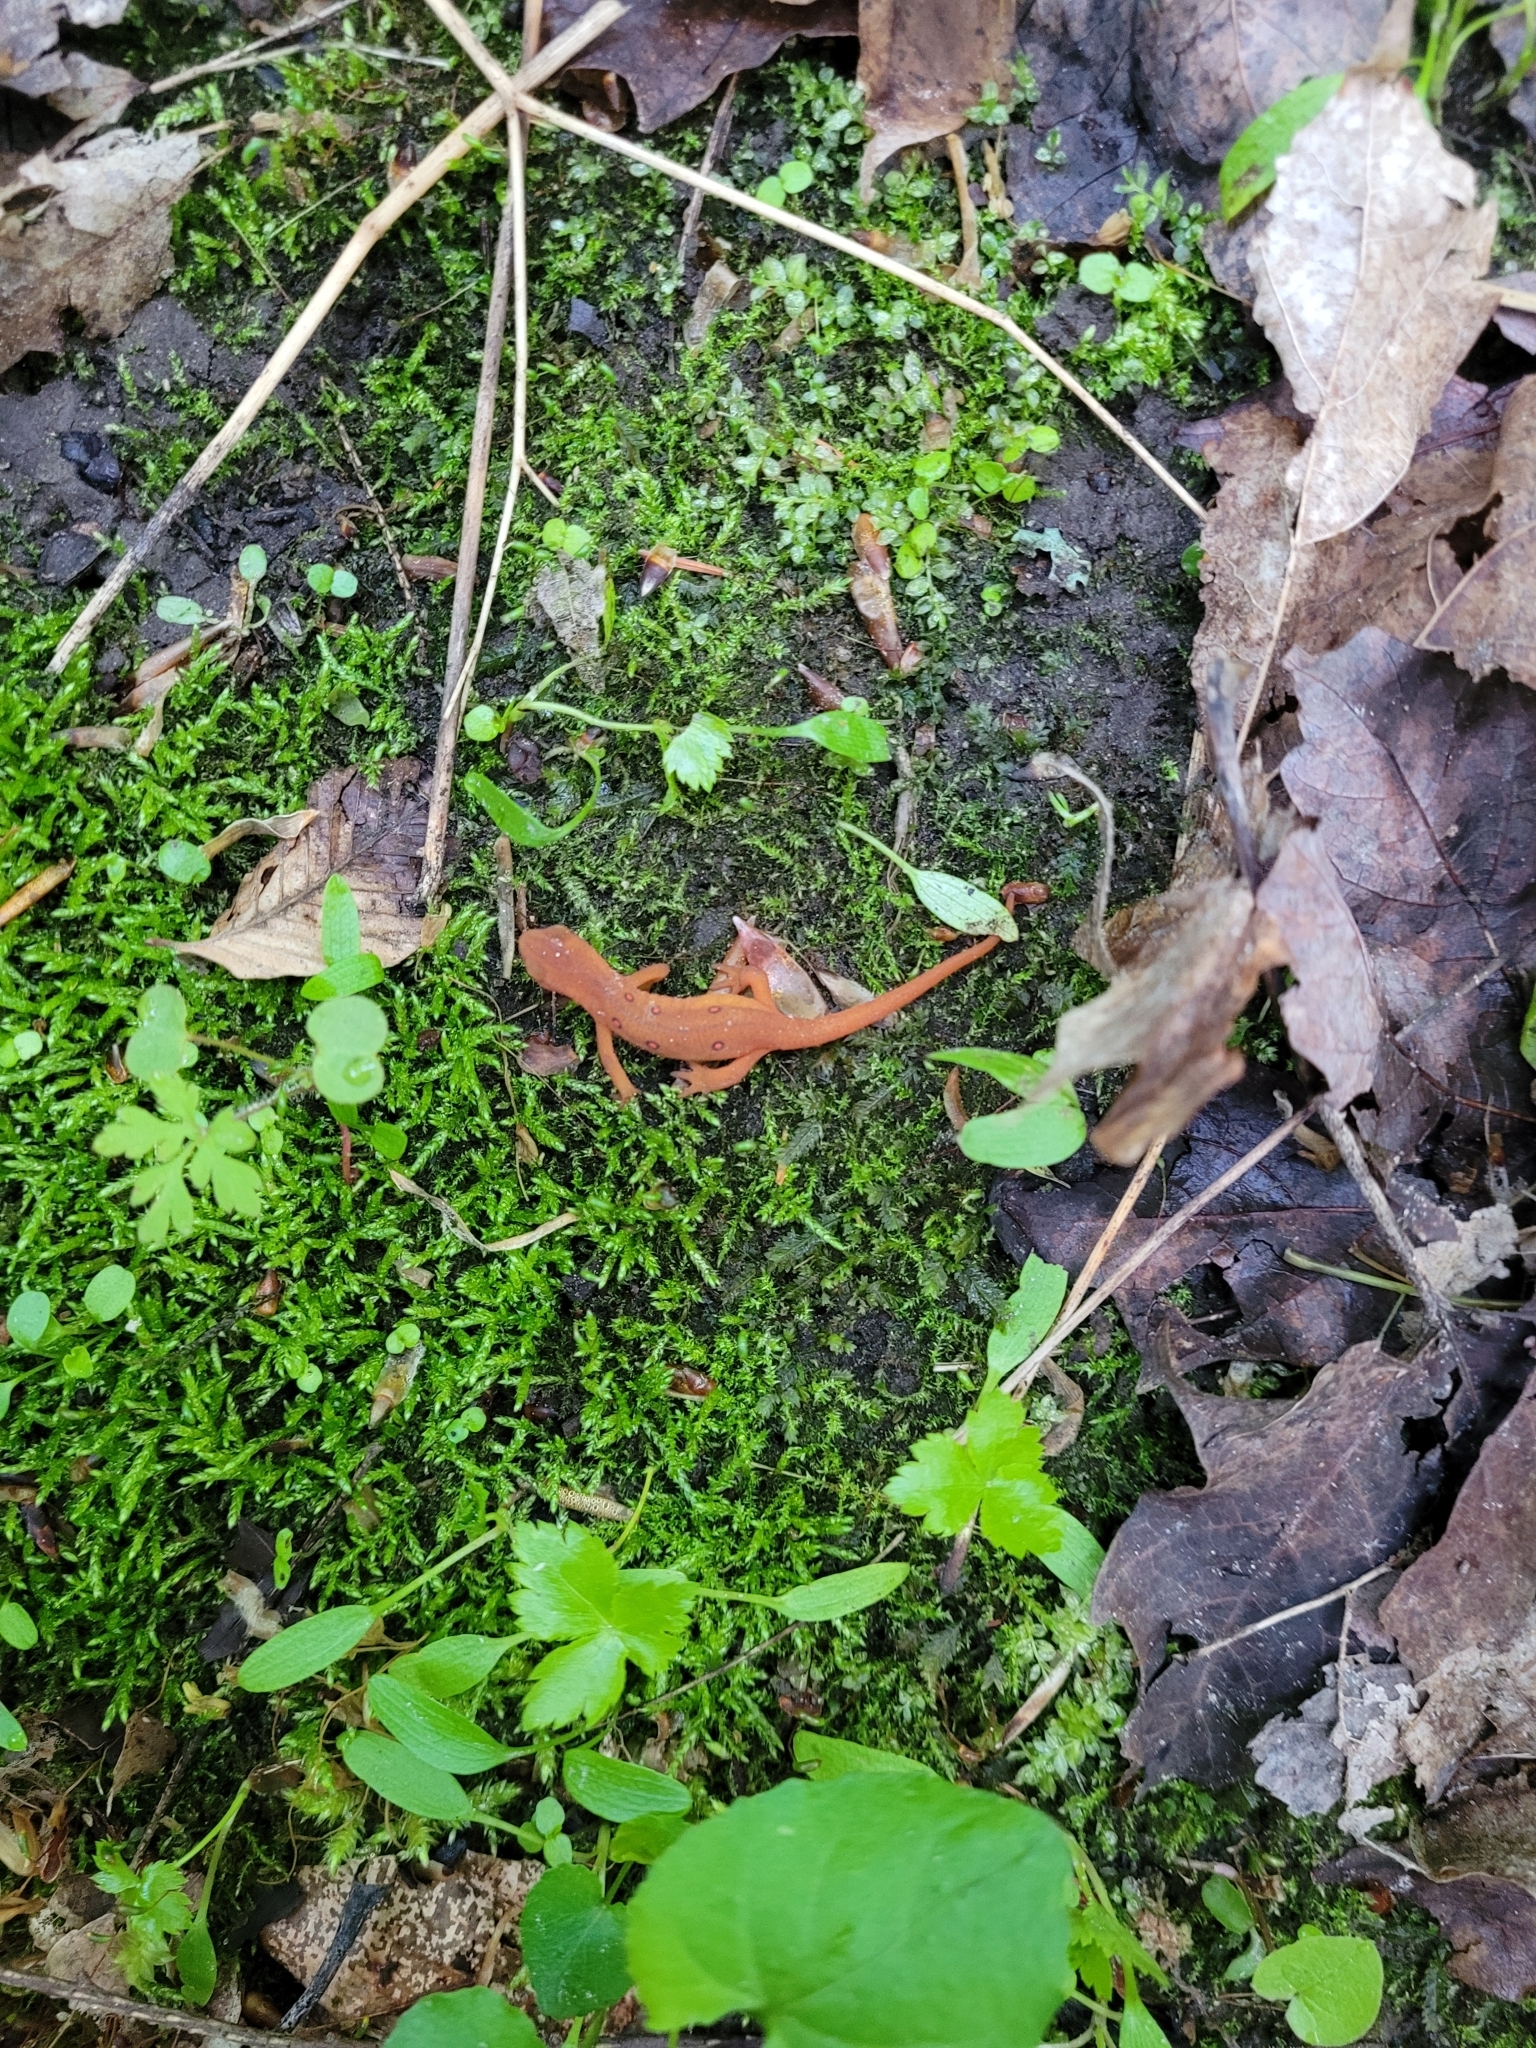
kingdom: Animalia
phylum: Chordata
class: Amphibia
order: Caudata
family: Salamandridae
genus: Notophthalmus
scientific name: Notophthalmus viridescens
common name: Eastern newt
